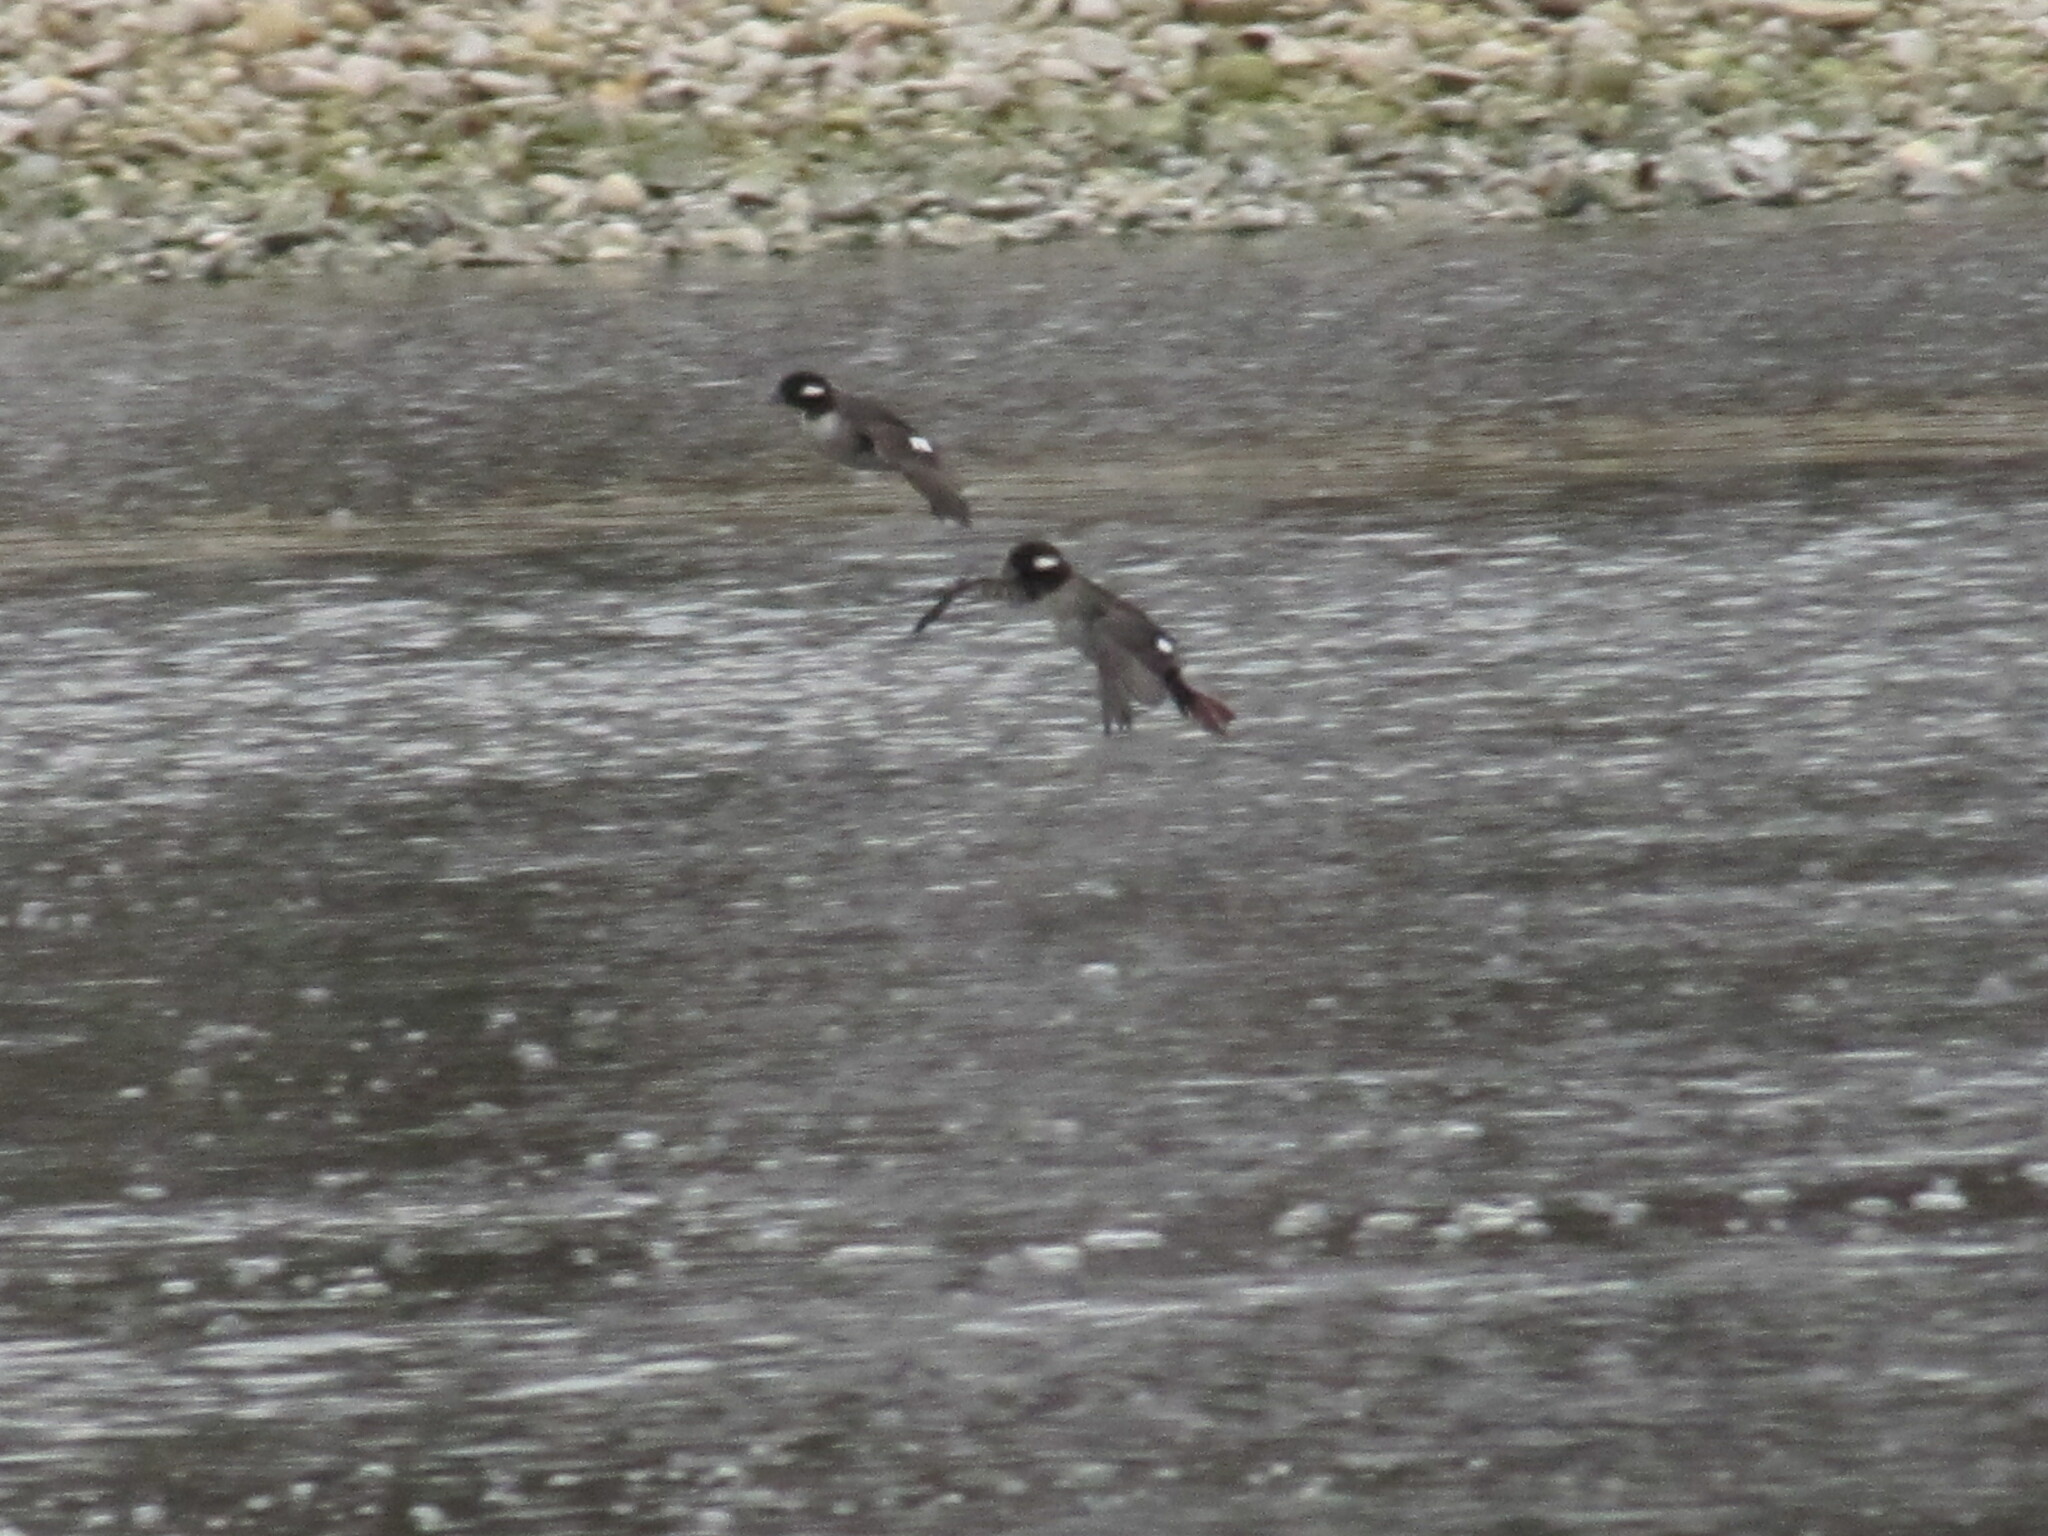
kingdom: Animalia
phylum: Chordata
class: Aves
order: Anseriformes
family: Anatidae
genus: Bucephala
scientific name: Bucephala albeola
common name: Bufflehead
